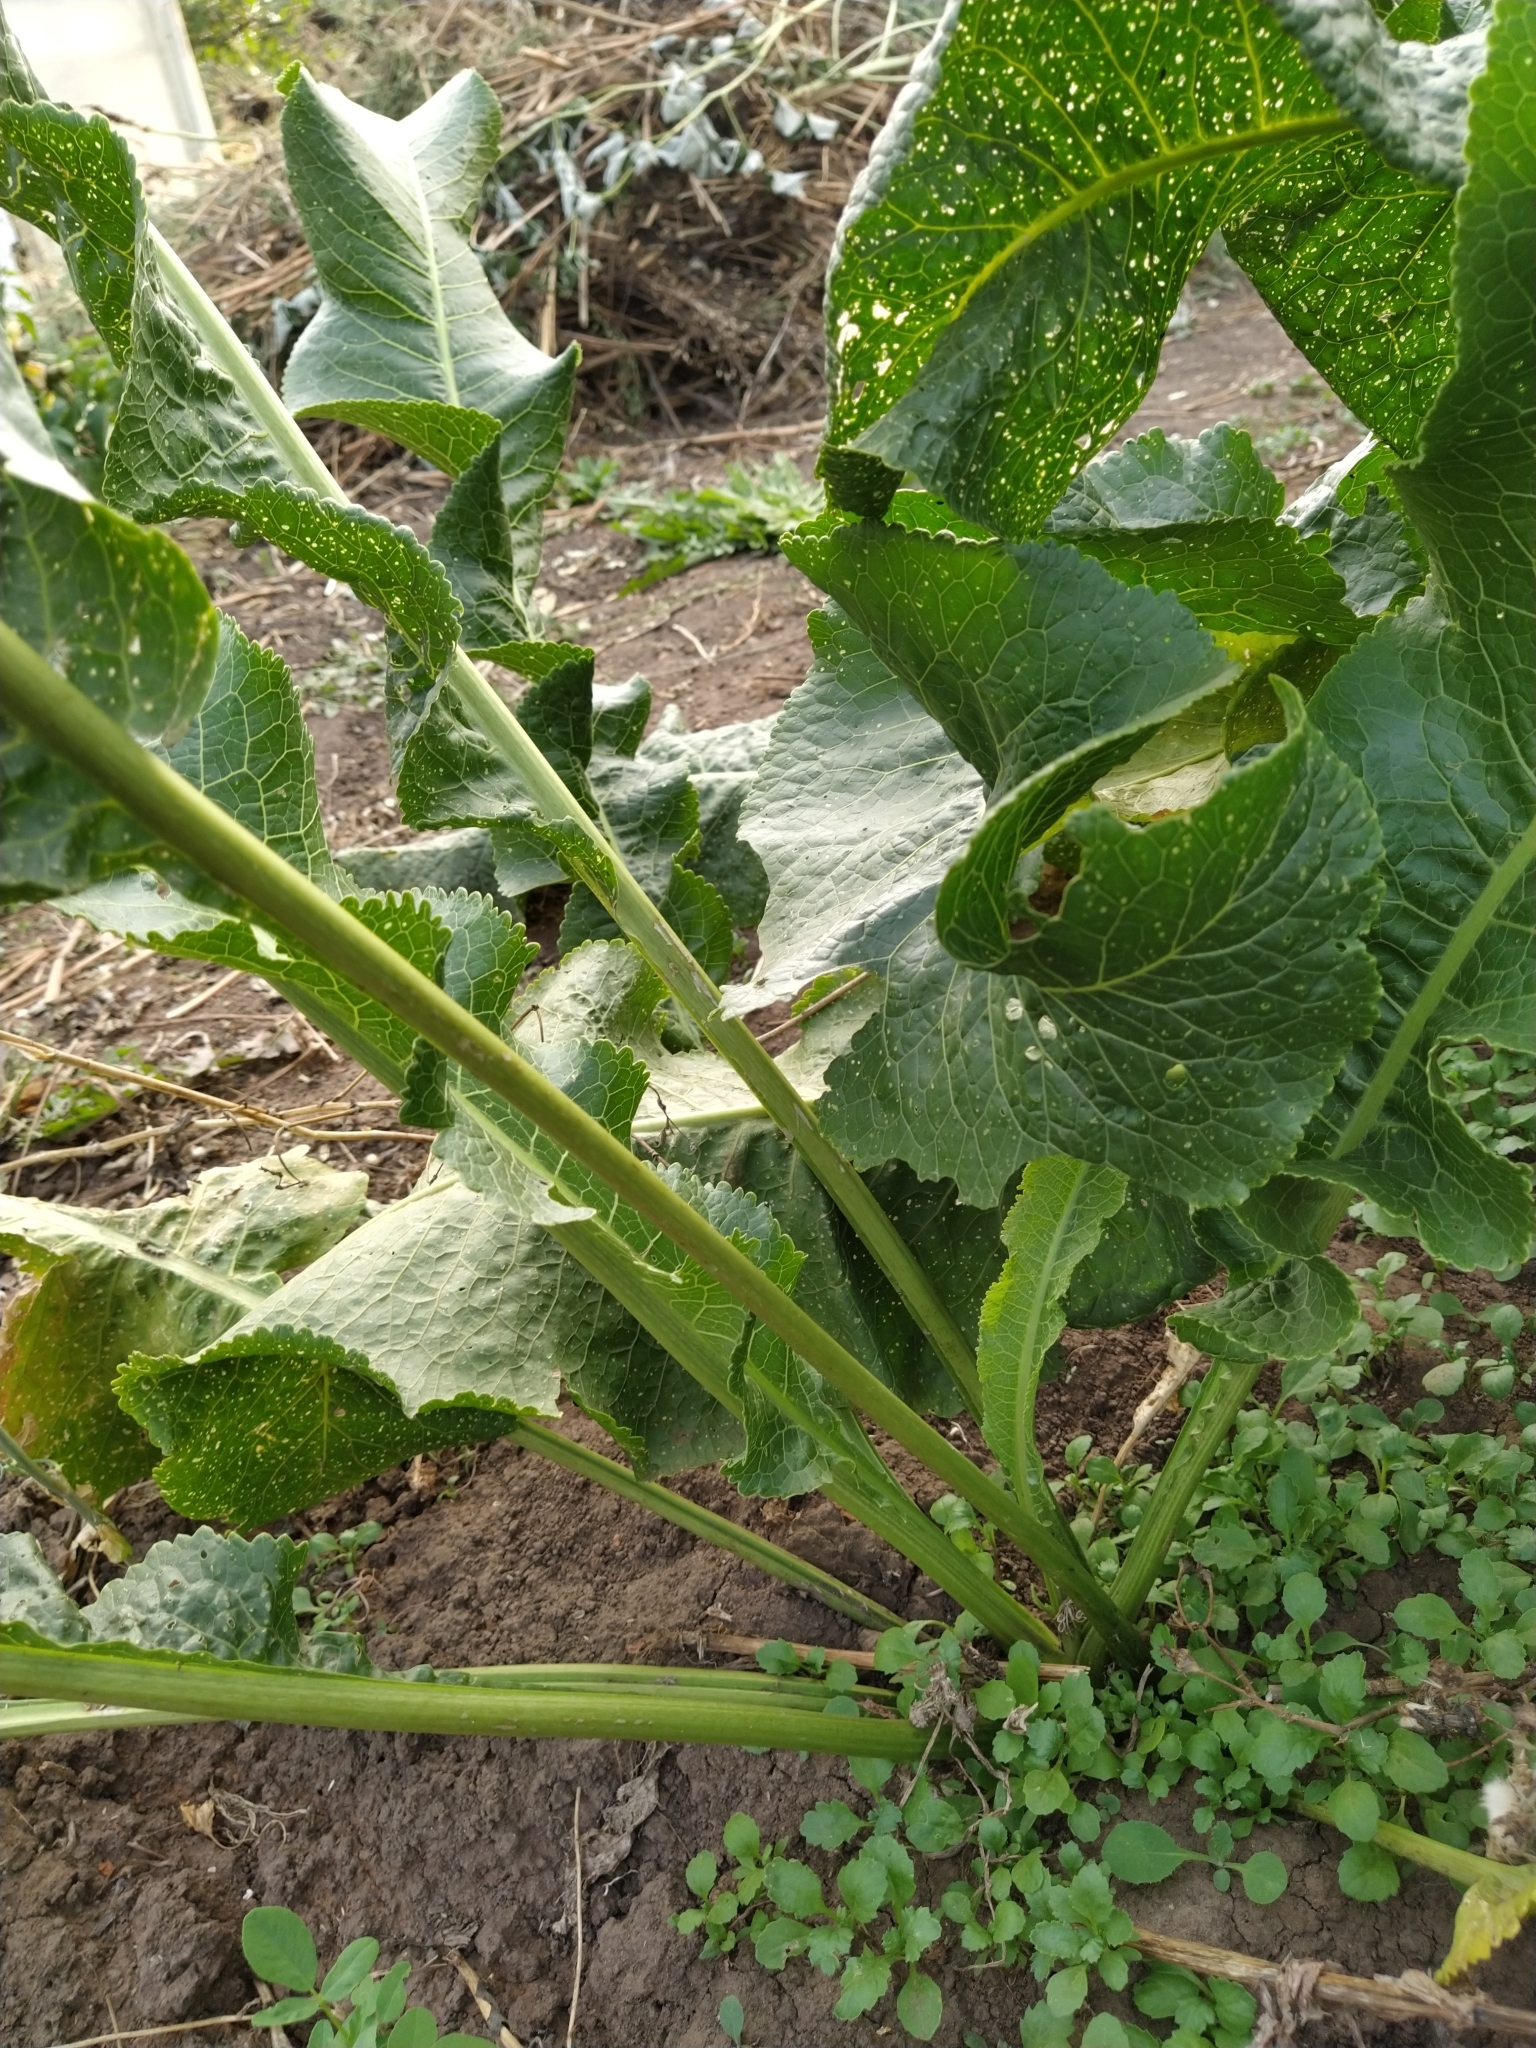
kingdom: Plantae
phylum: Tracheophyta
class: Magnoliopsida
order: Brassicales
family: Brassicaceae
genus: Armoracia
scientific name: Armoracia rusticana
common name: Horseradish
